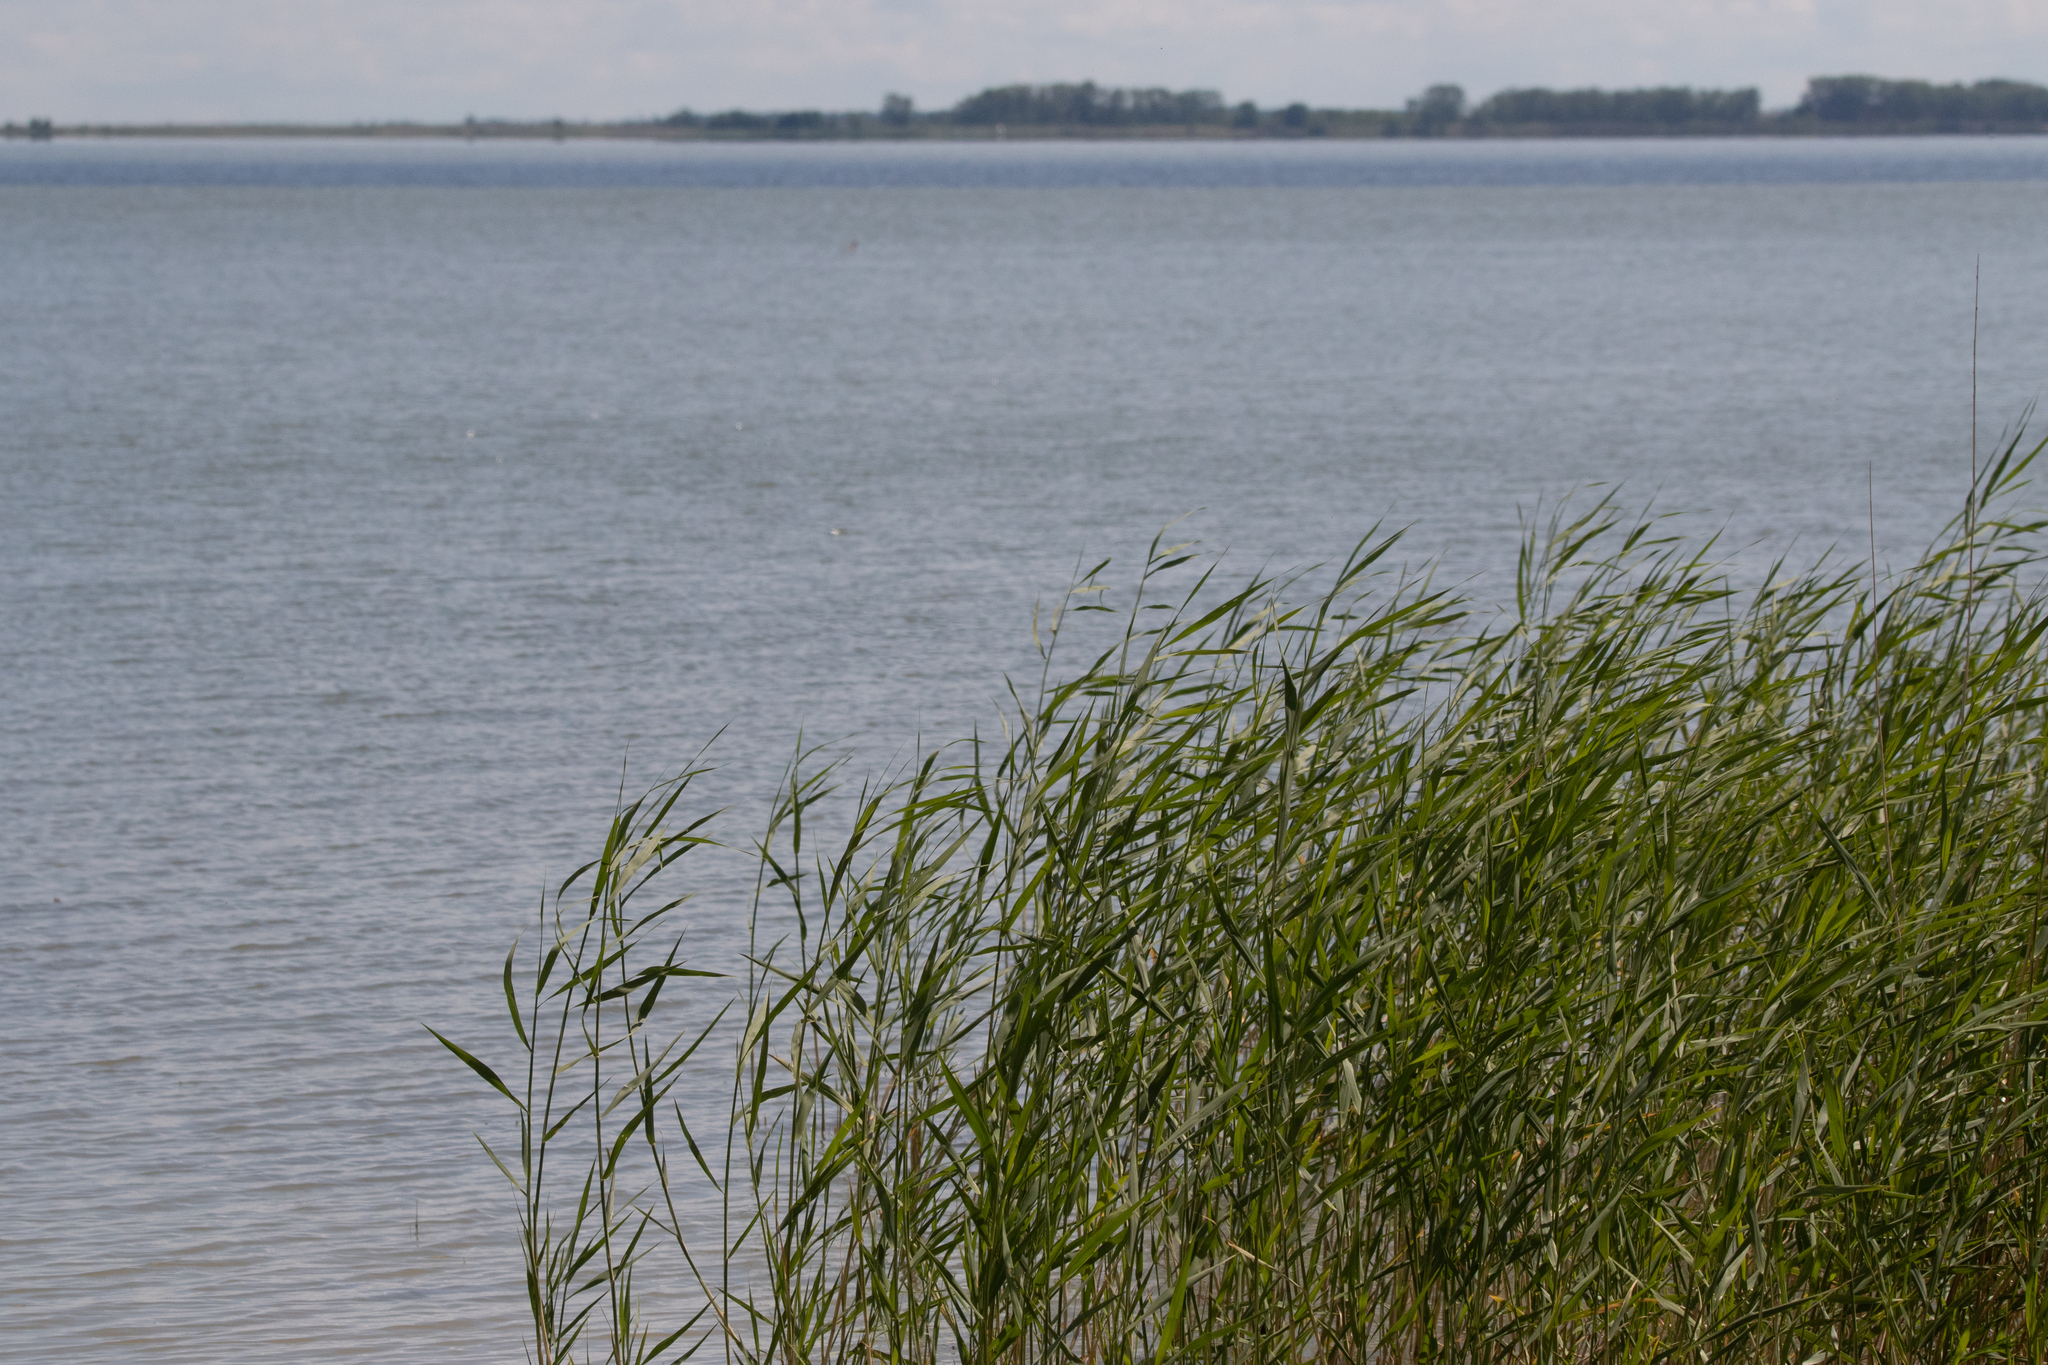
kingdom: Plantae
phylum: Tracheophyta
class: Liliopsida
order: Poales
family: Poaceae
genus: Phragmites
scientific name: Phragmites australis
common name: Common reed
